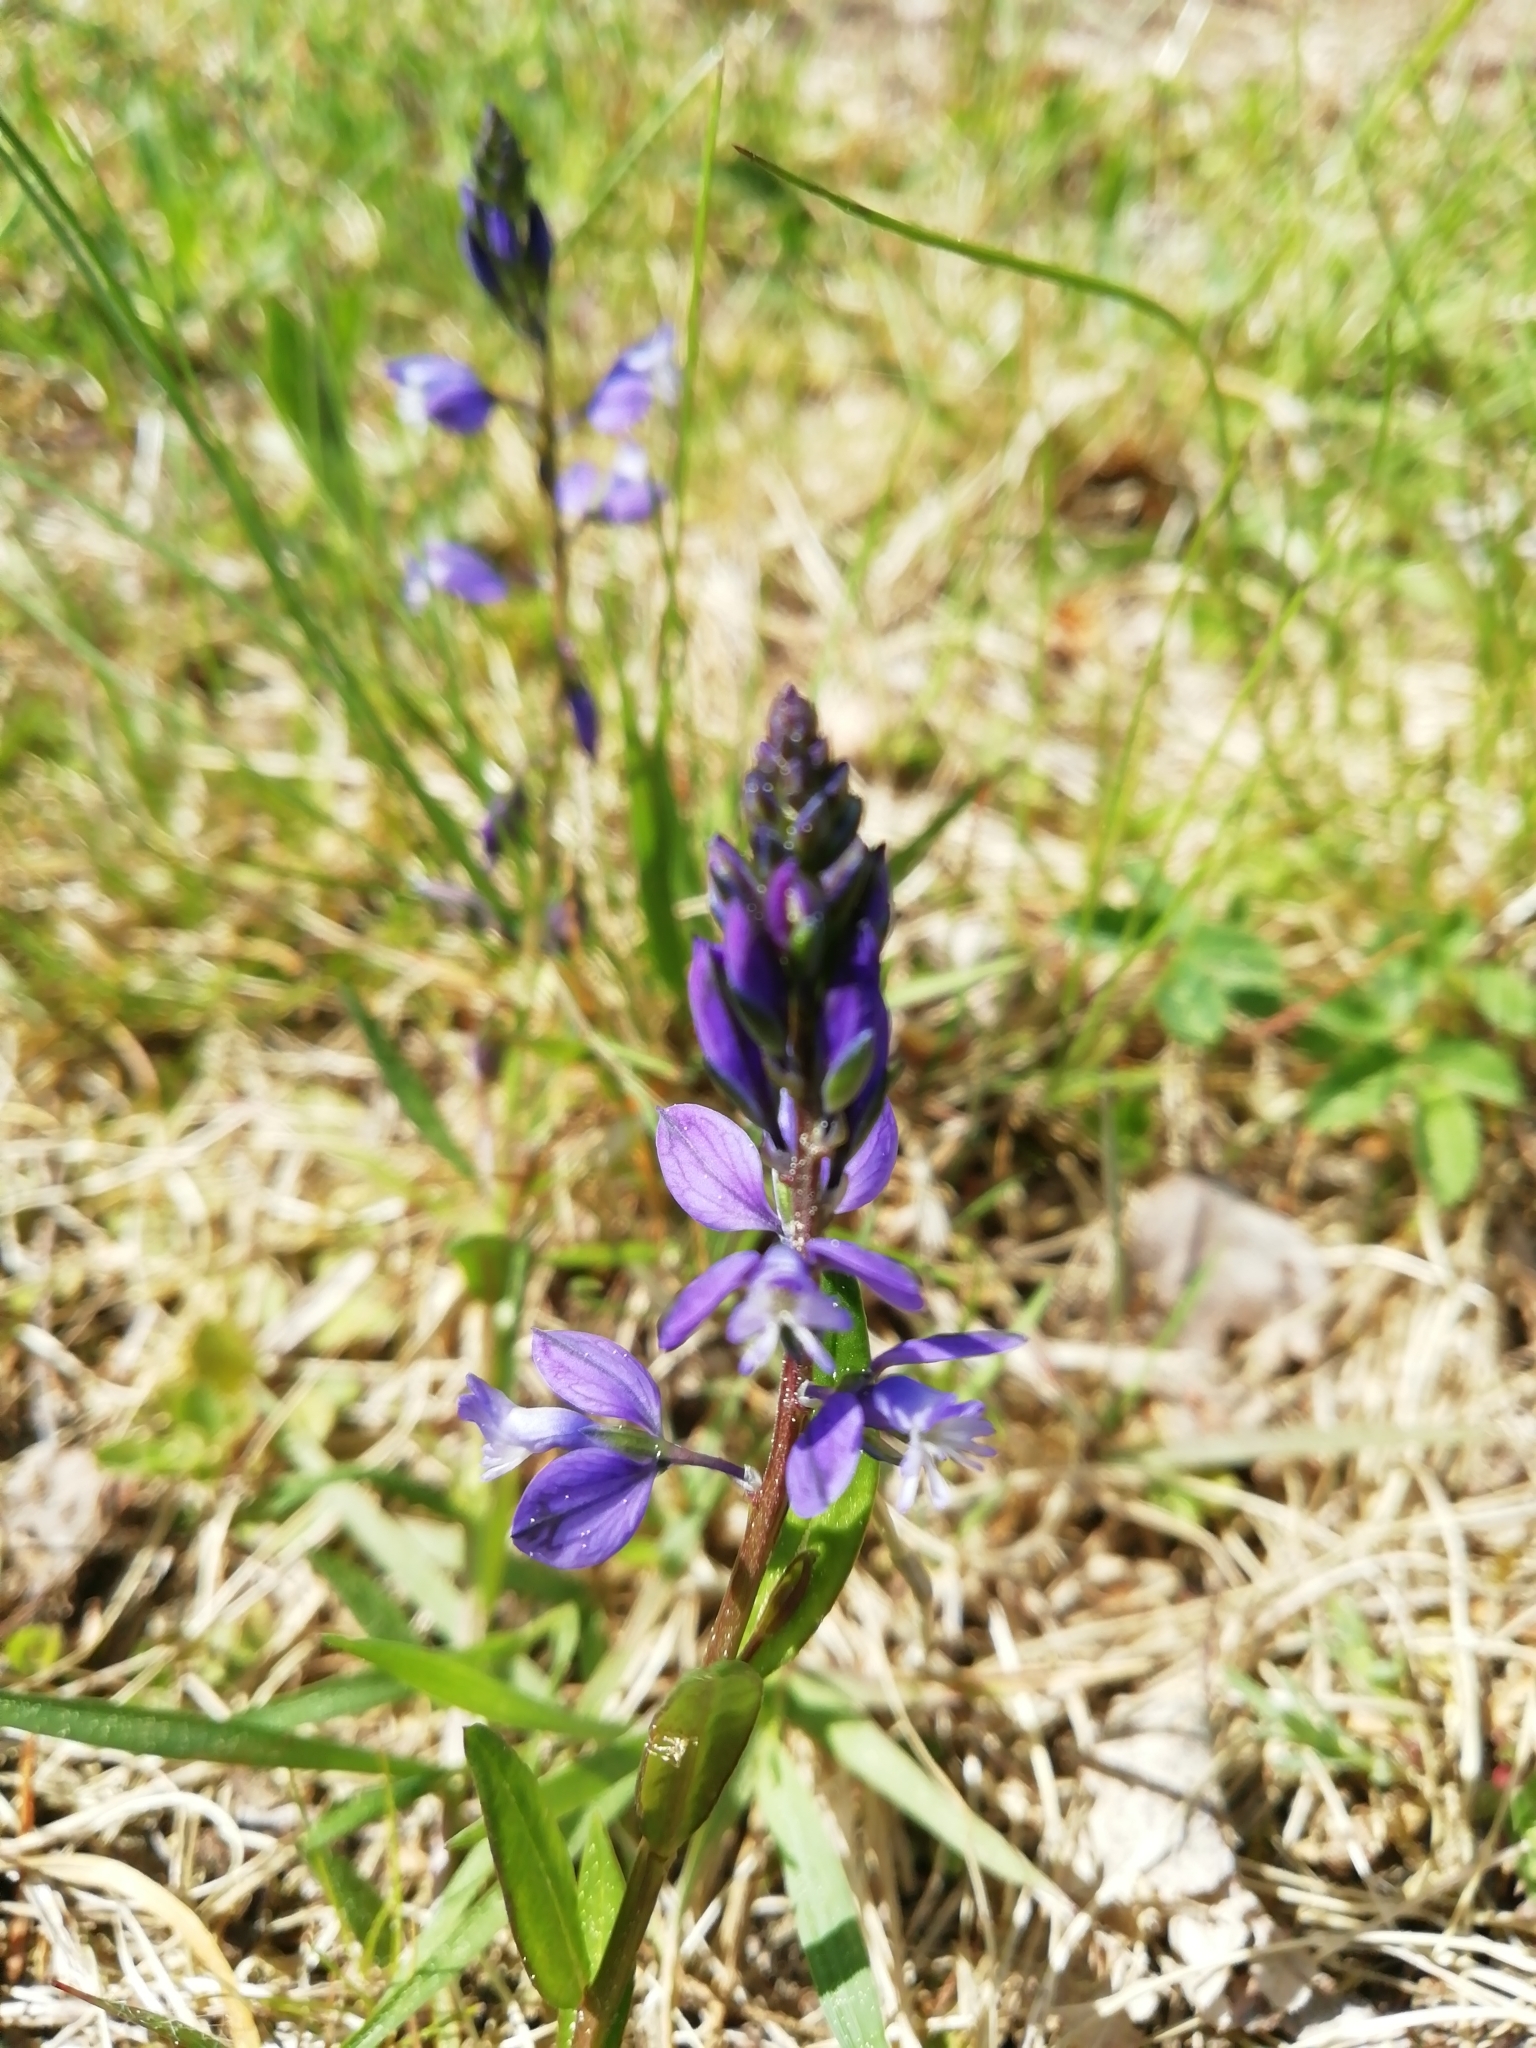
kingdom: Plantae
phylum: Tracheophyta
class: Magnoliopsida
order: Fabales
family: Polygalaceae
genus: Polygala
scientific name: Polygala vulgaris
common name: Common milkwort
